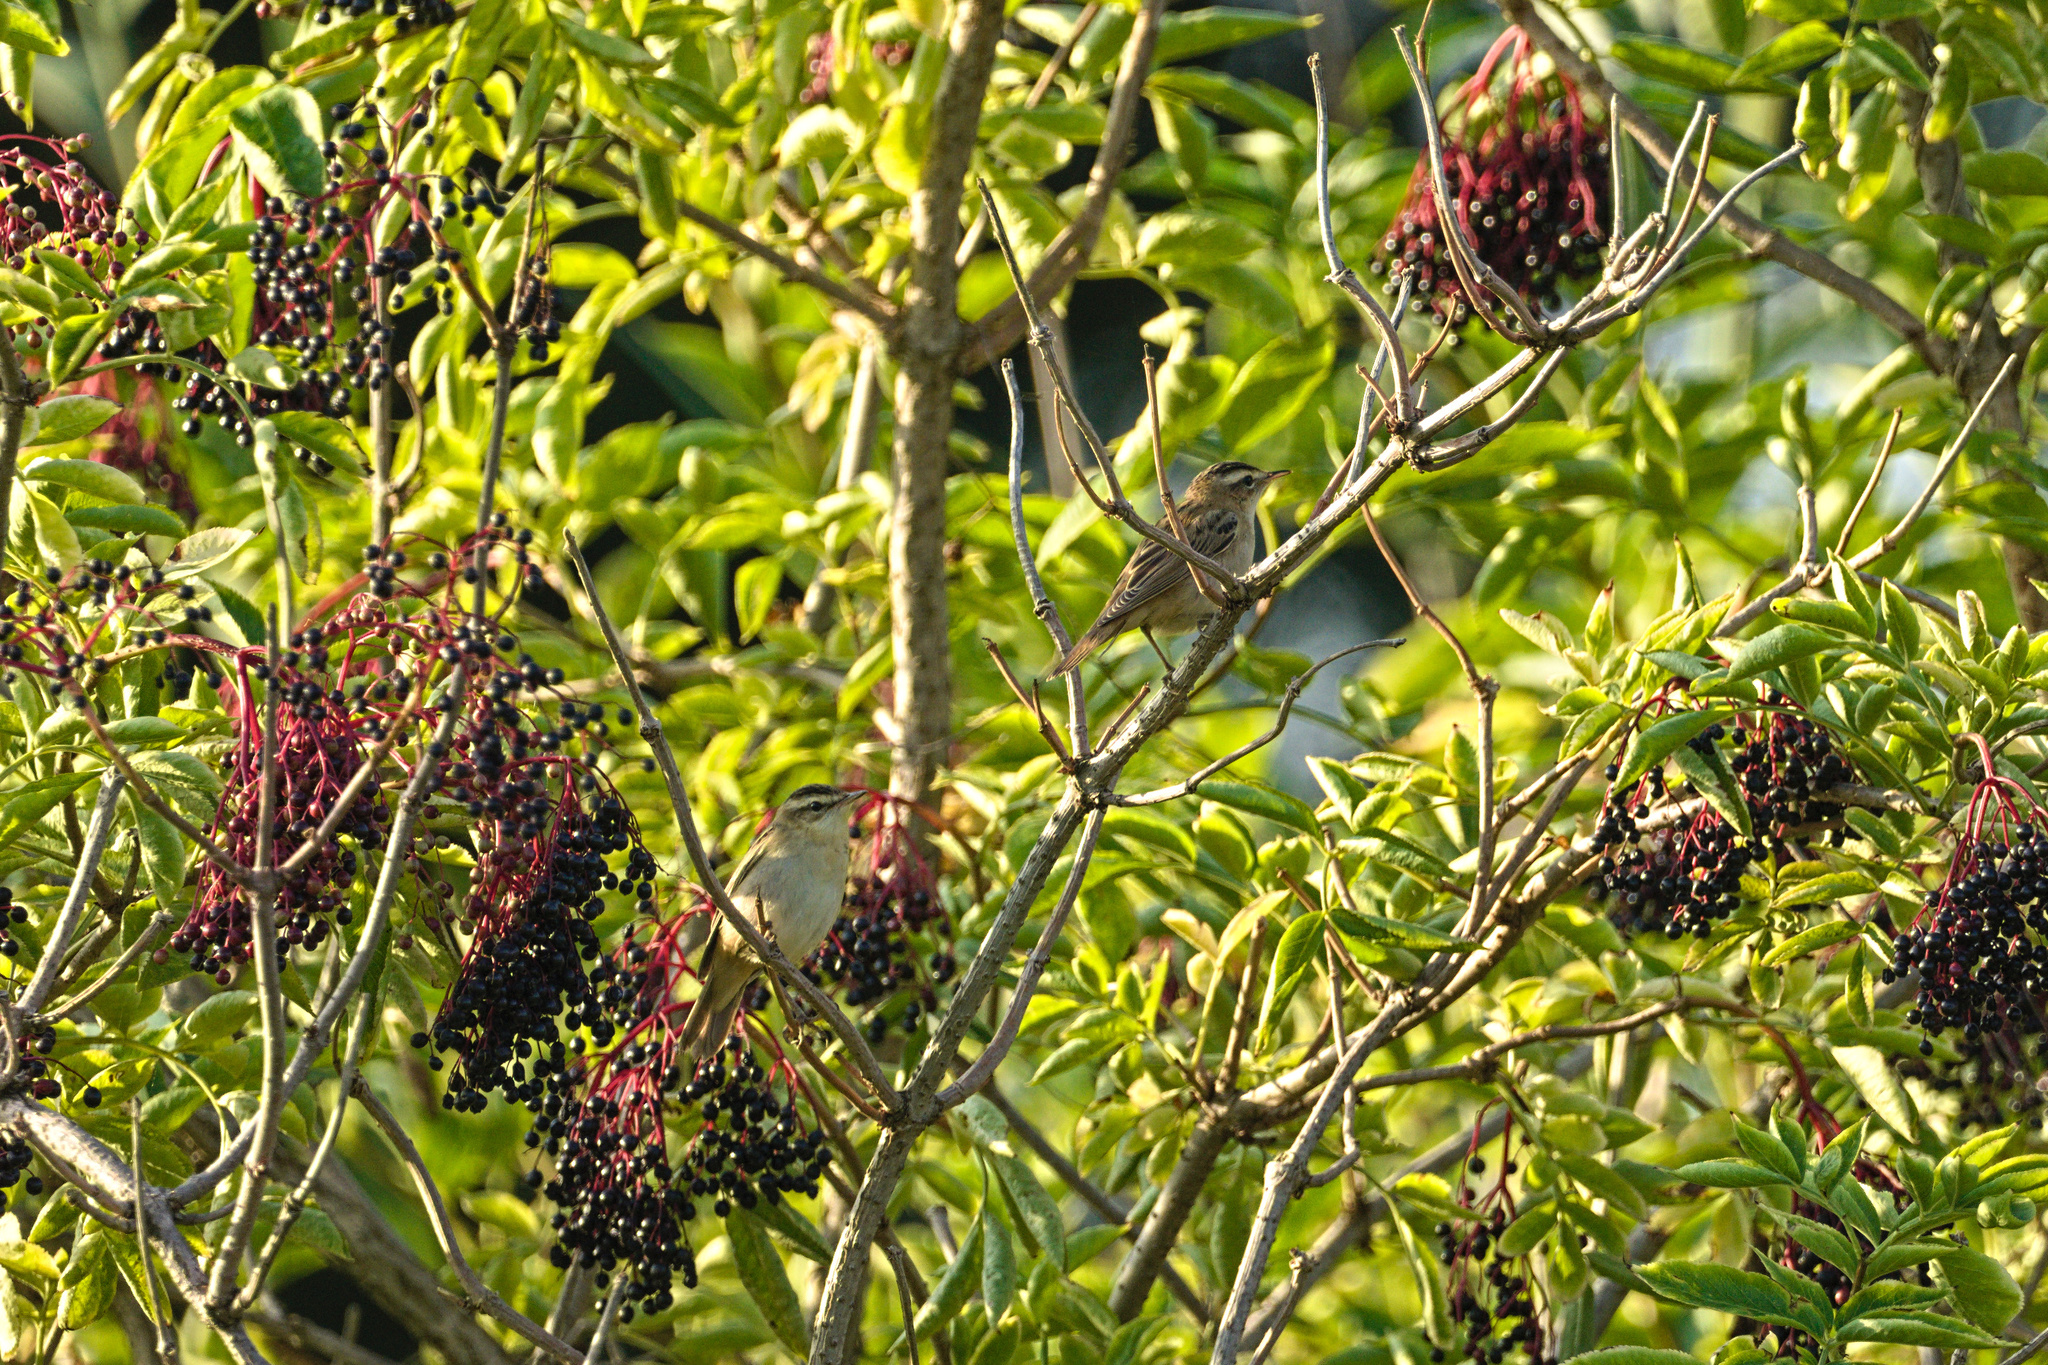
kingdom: Animalia
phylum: Chordata
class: Aves
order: Passeriformes
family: Acrocephalidae
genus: Acrocephalus
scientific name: Acrocephalus schoenobaenus
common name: Sedge warbler
